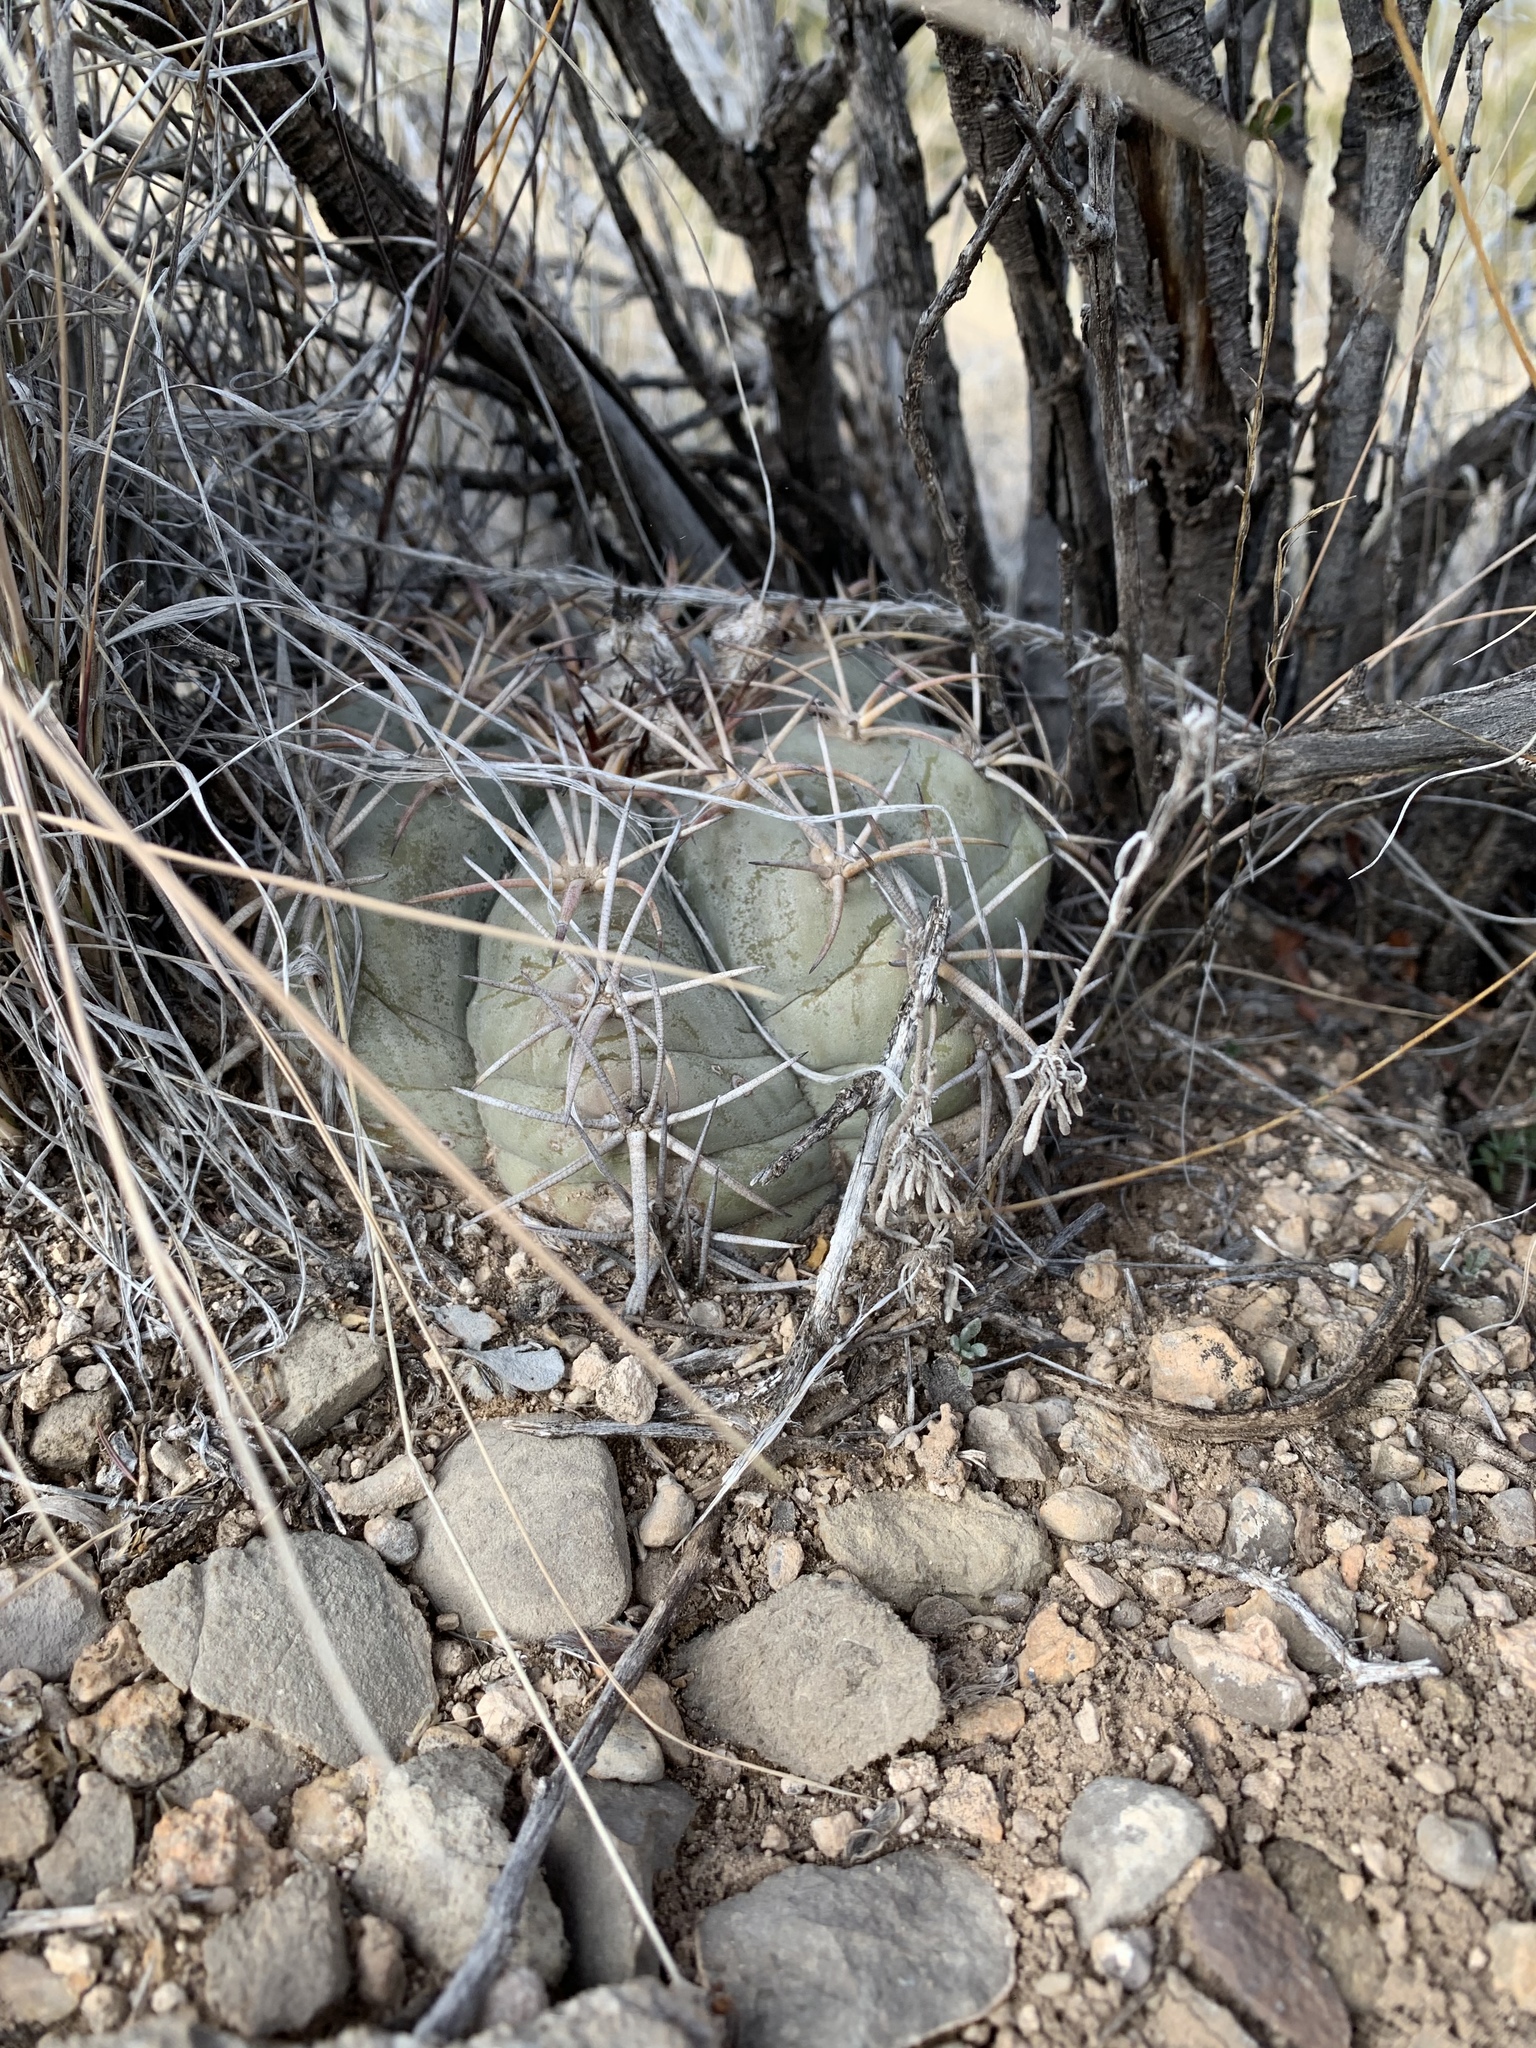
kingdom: Plantae
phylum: Tracheophyta
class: Magnoliopsida
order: Caryophyllales
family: Cactaceae
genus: Echinocactus
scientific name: Echinocactus horizonthalonius
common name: Devilshead
